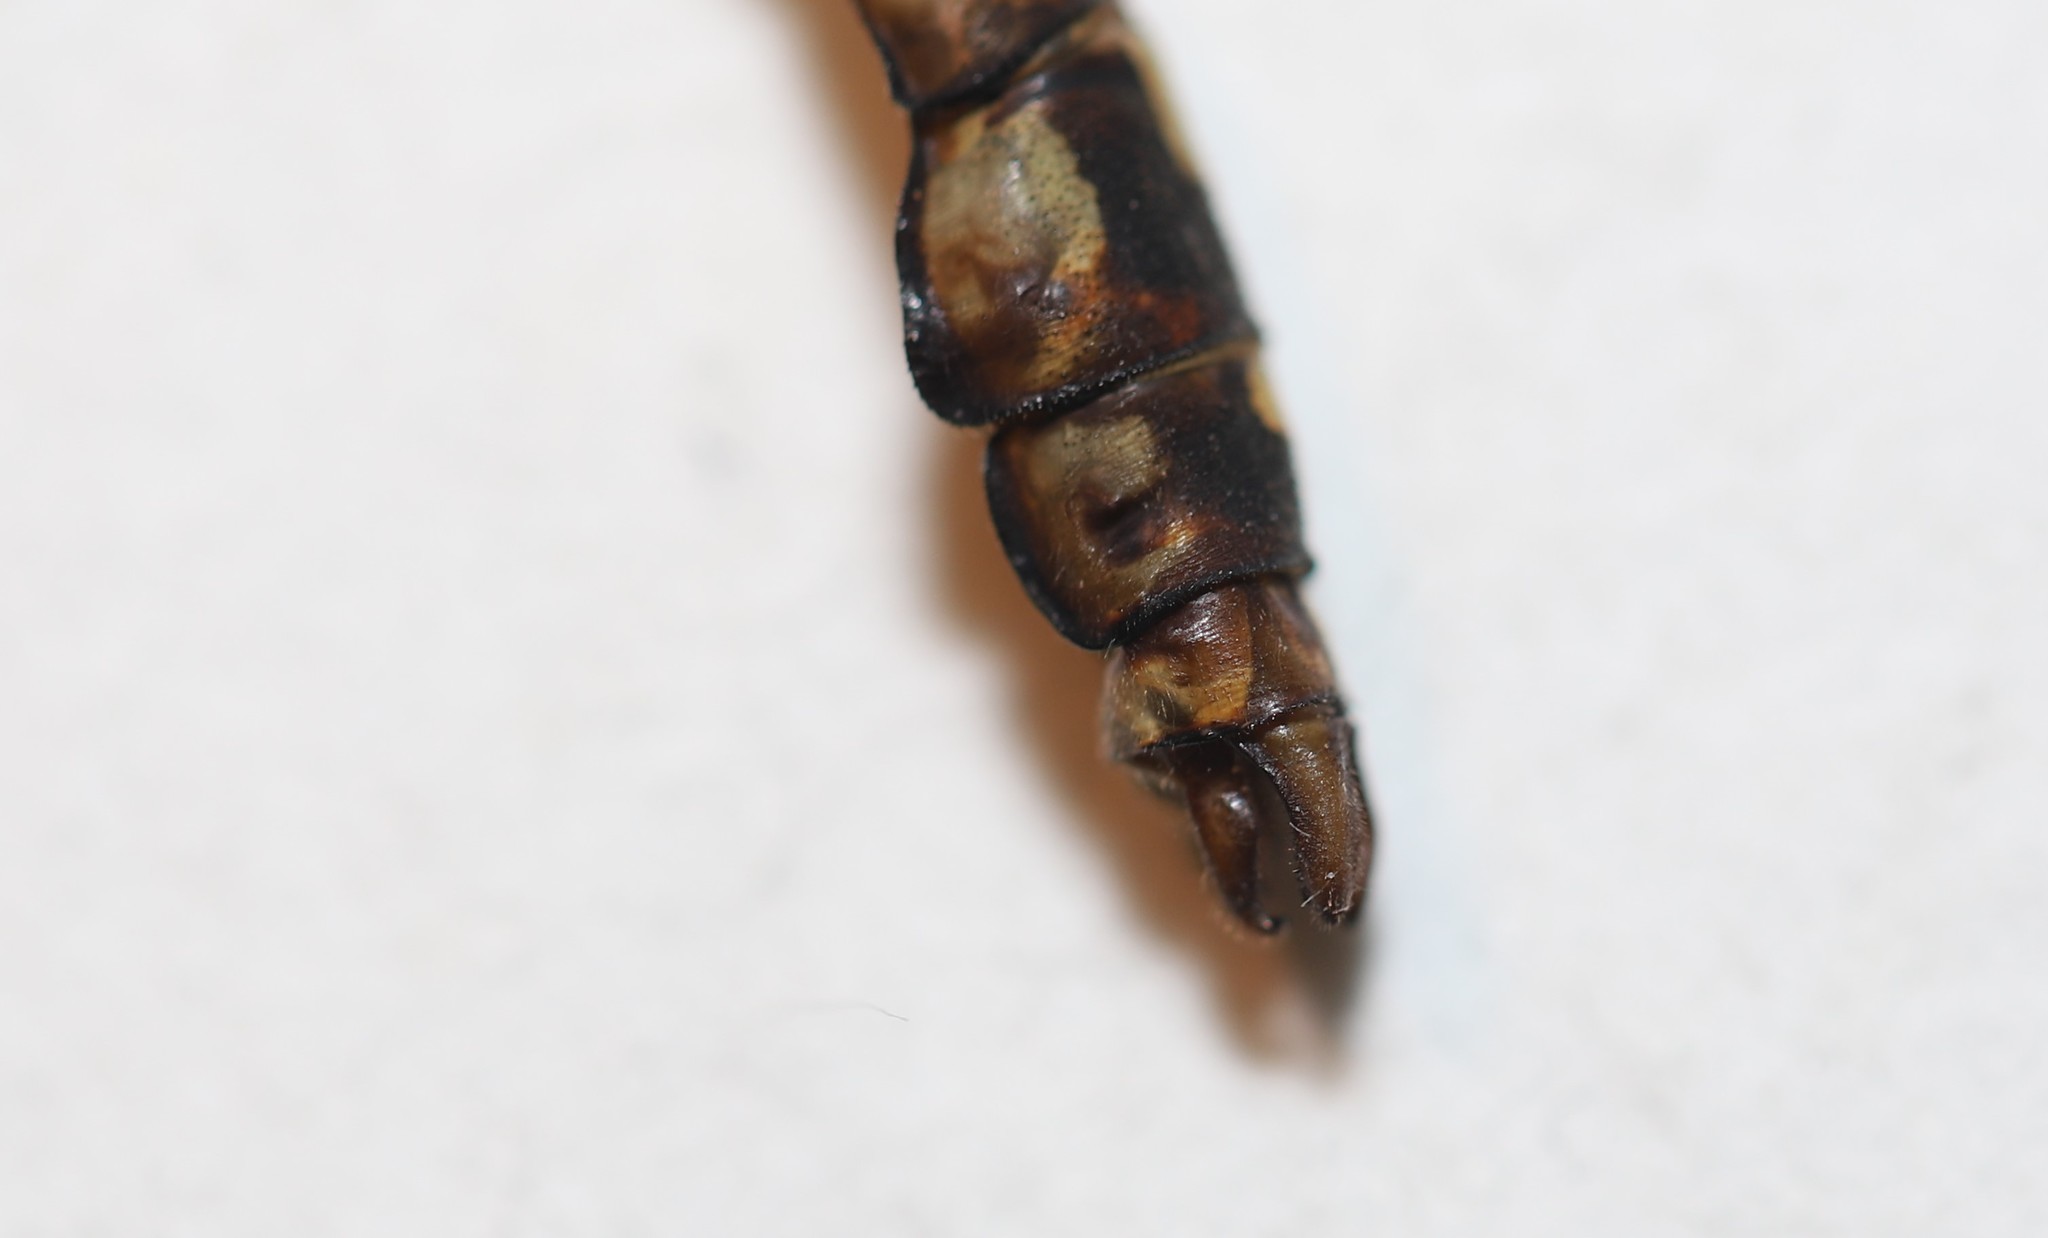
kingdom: Animalia
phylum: Arthropoda
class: Insecta
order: Odonata
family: Gomphidae
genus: Ophiogomphus
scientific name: Ophiogomphus colubrinus
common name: Boreal snaketail
